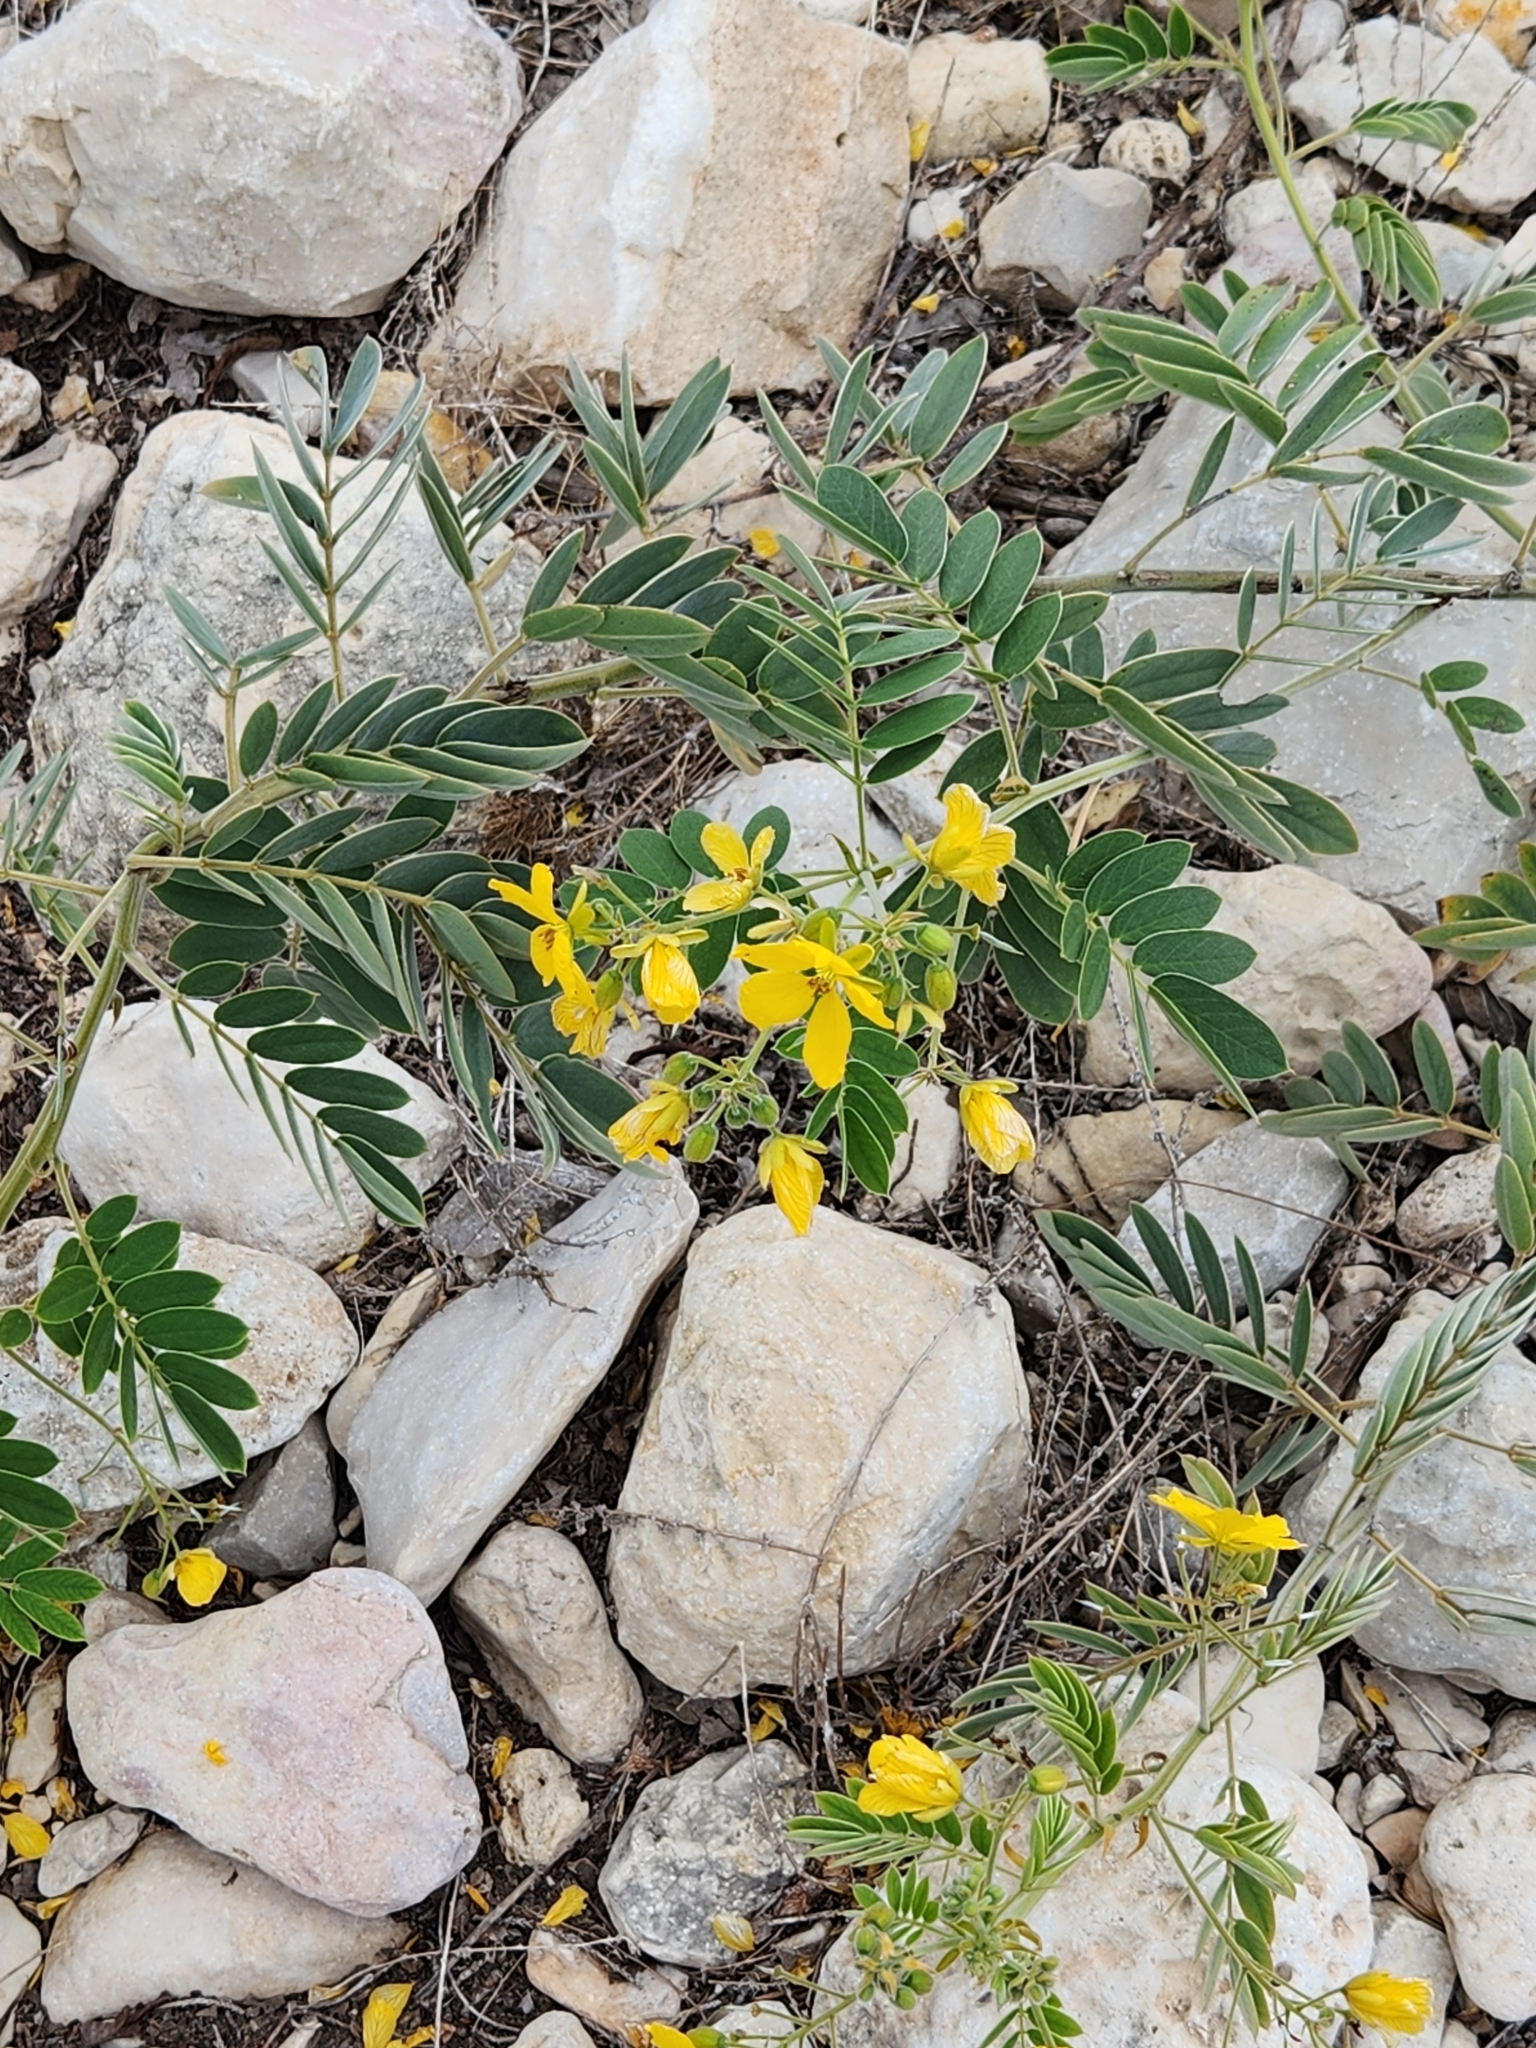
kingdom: Plantae
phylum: Tracheophyta
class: Magnoliopsida
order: Fabales
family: Fabaceae
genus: Senna
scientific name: Senna lindheimeriana
